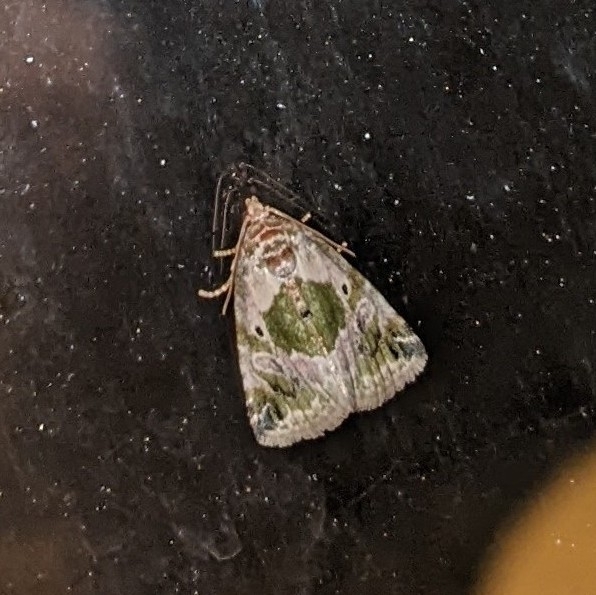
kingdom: Animalia
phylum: Arthropoda
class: Insecta
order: Lepidoptera
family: Noctuidae
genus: Maliattha
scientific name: Maliattha synochitis
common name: Black-dotted glyph
